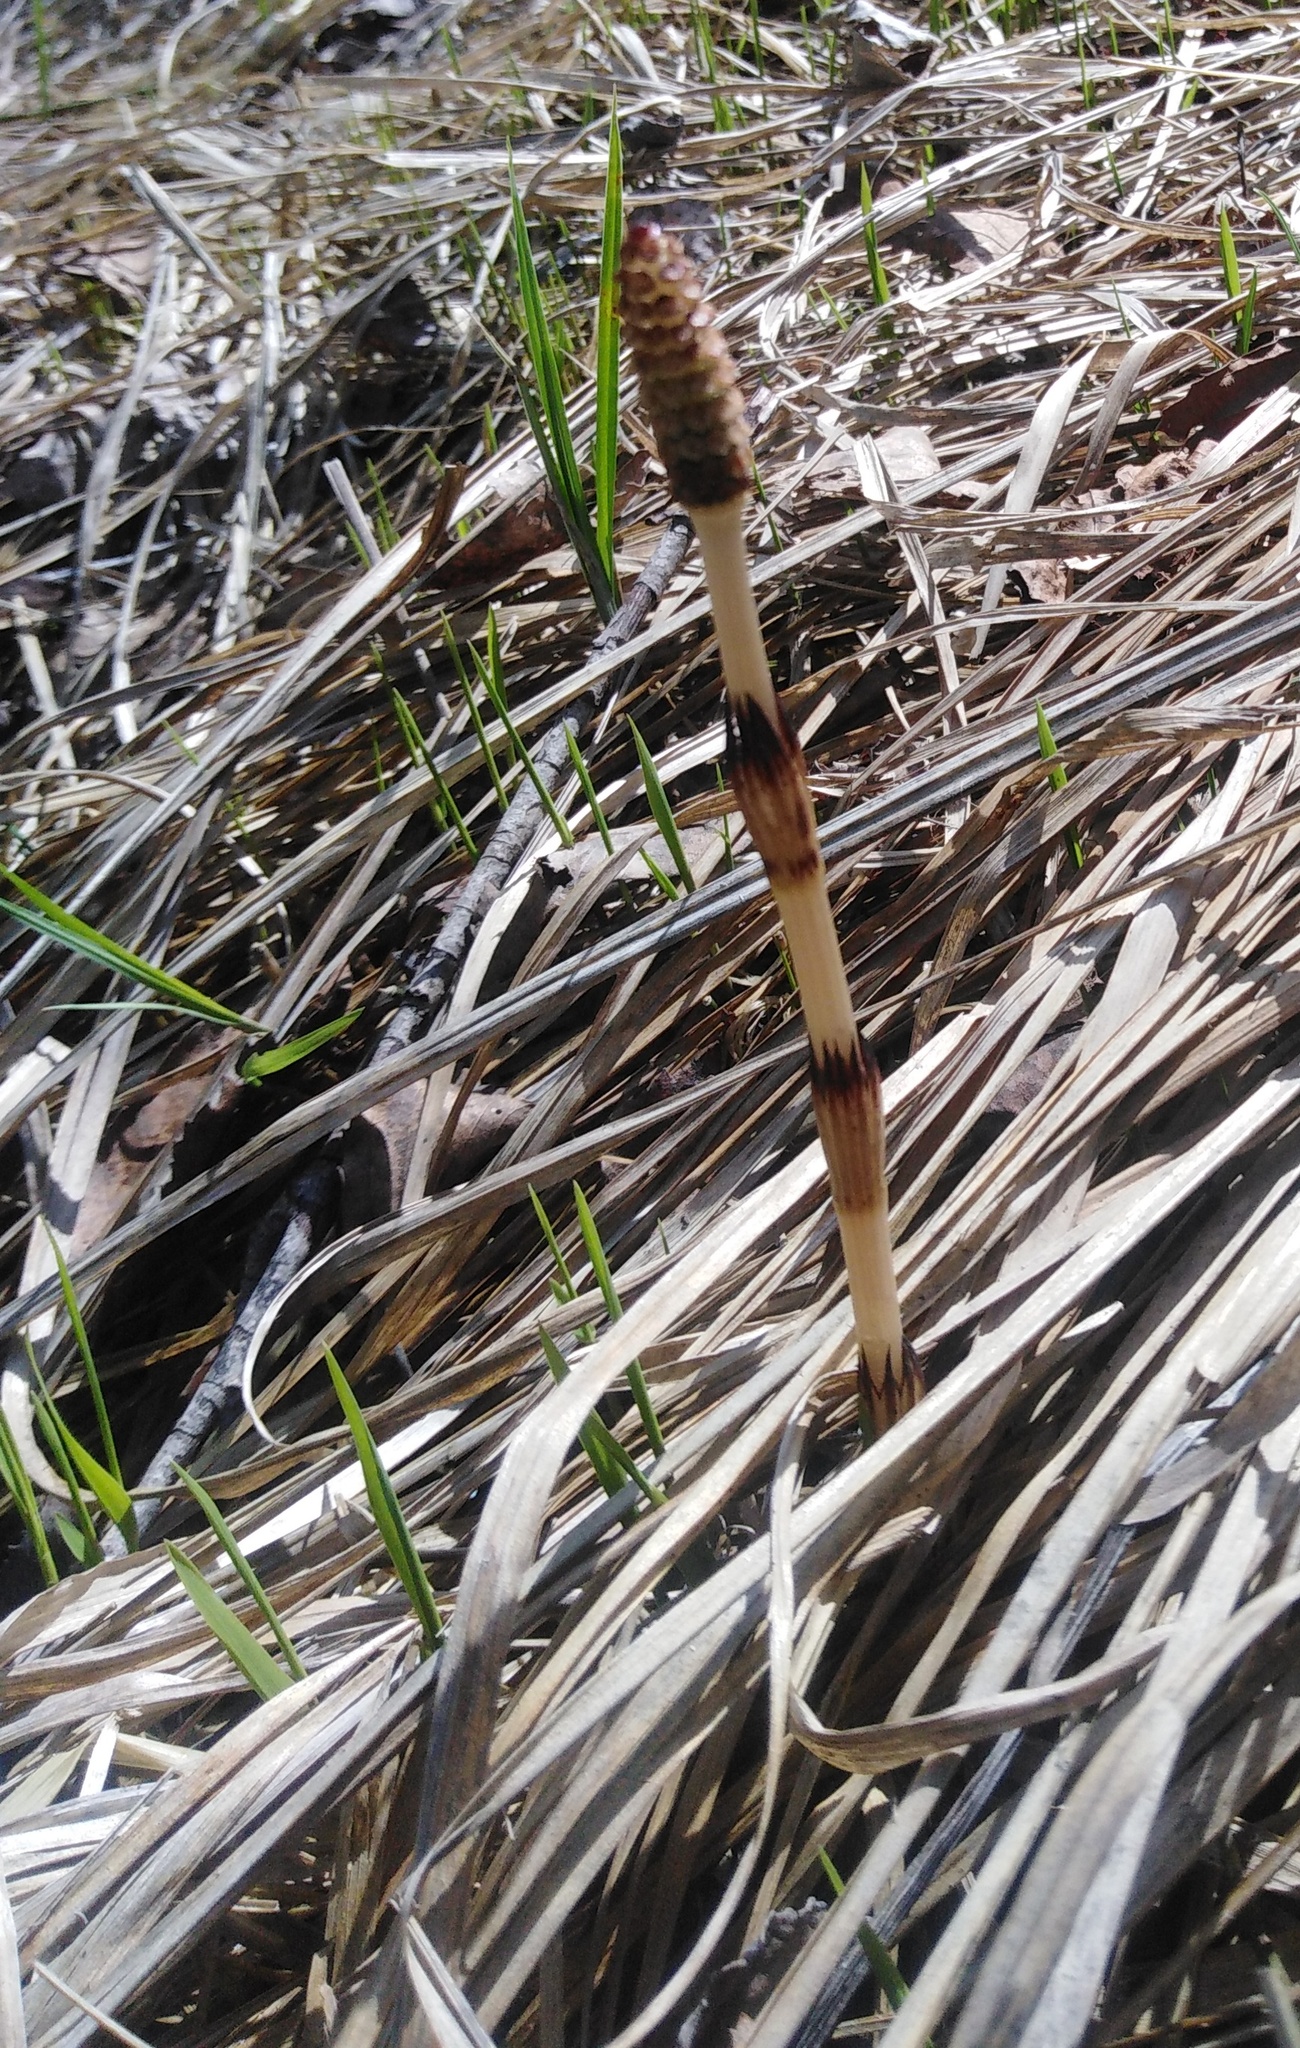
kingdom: Plantae
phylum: Tracheophyta
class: Polypodiopsida
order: Equisetales
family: Equisetaceae
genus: Equisetum
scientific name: Equisetum arvense
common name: Field horsetail
